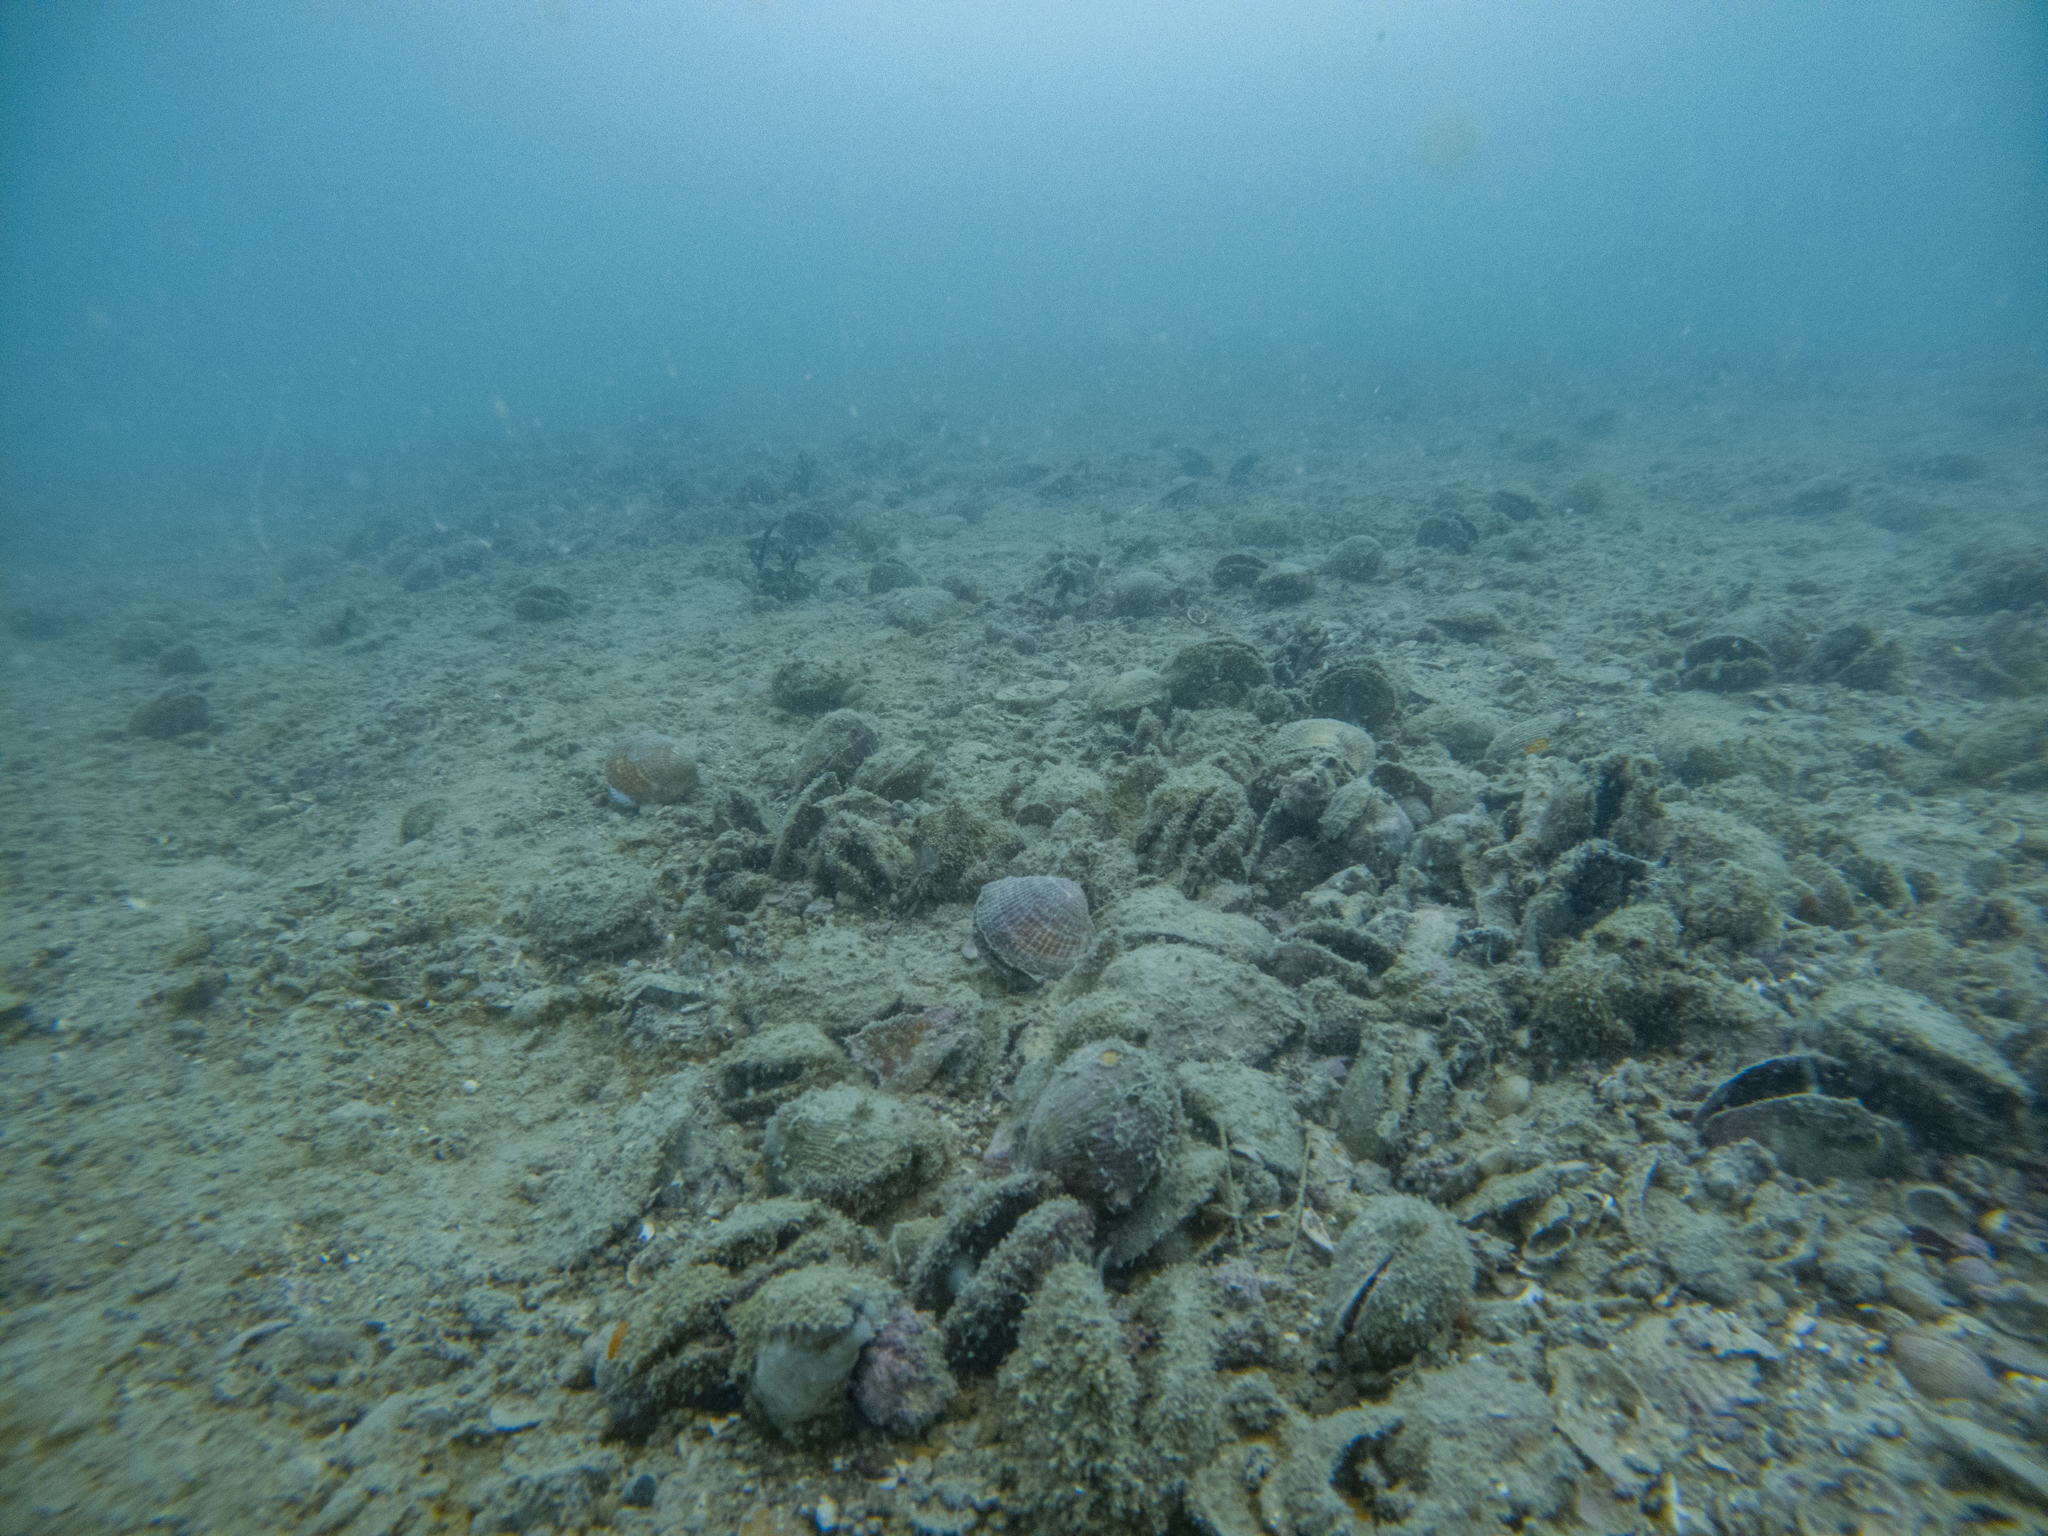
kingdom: Animalia
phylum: Mollusca
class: Bivalvia
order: Arcida
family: Glycymerididae
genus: Tucetona
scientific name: Tucetona laticostata
